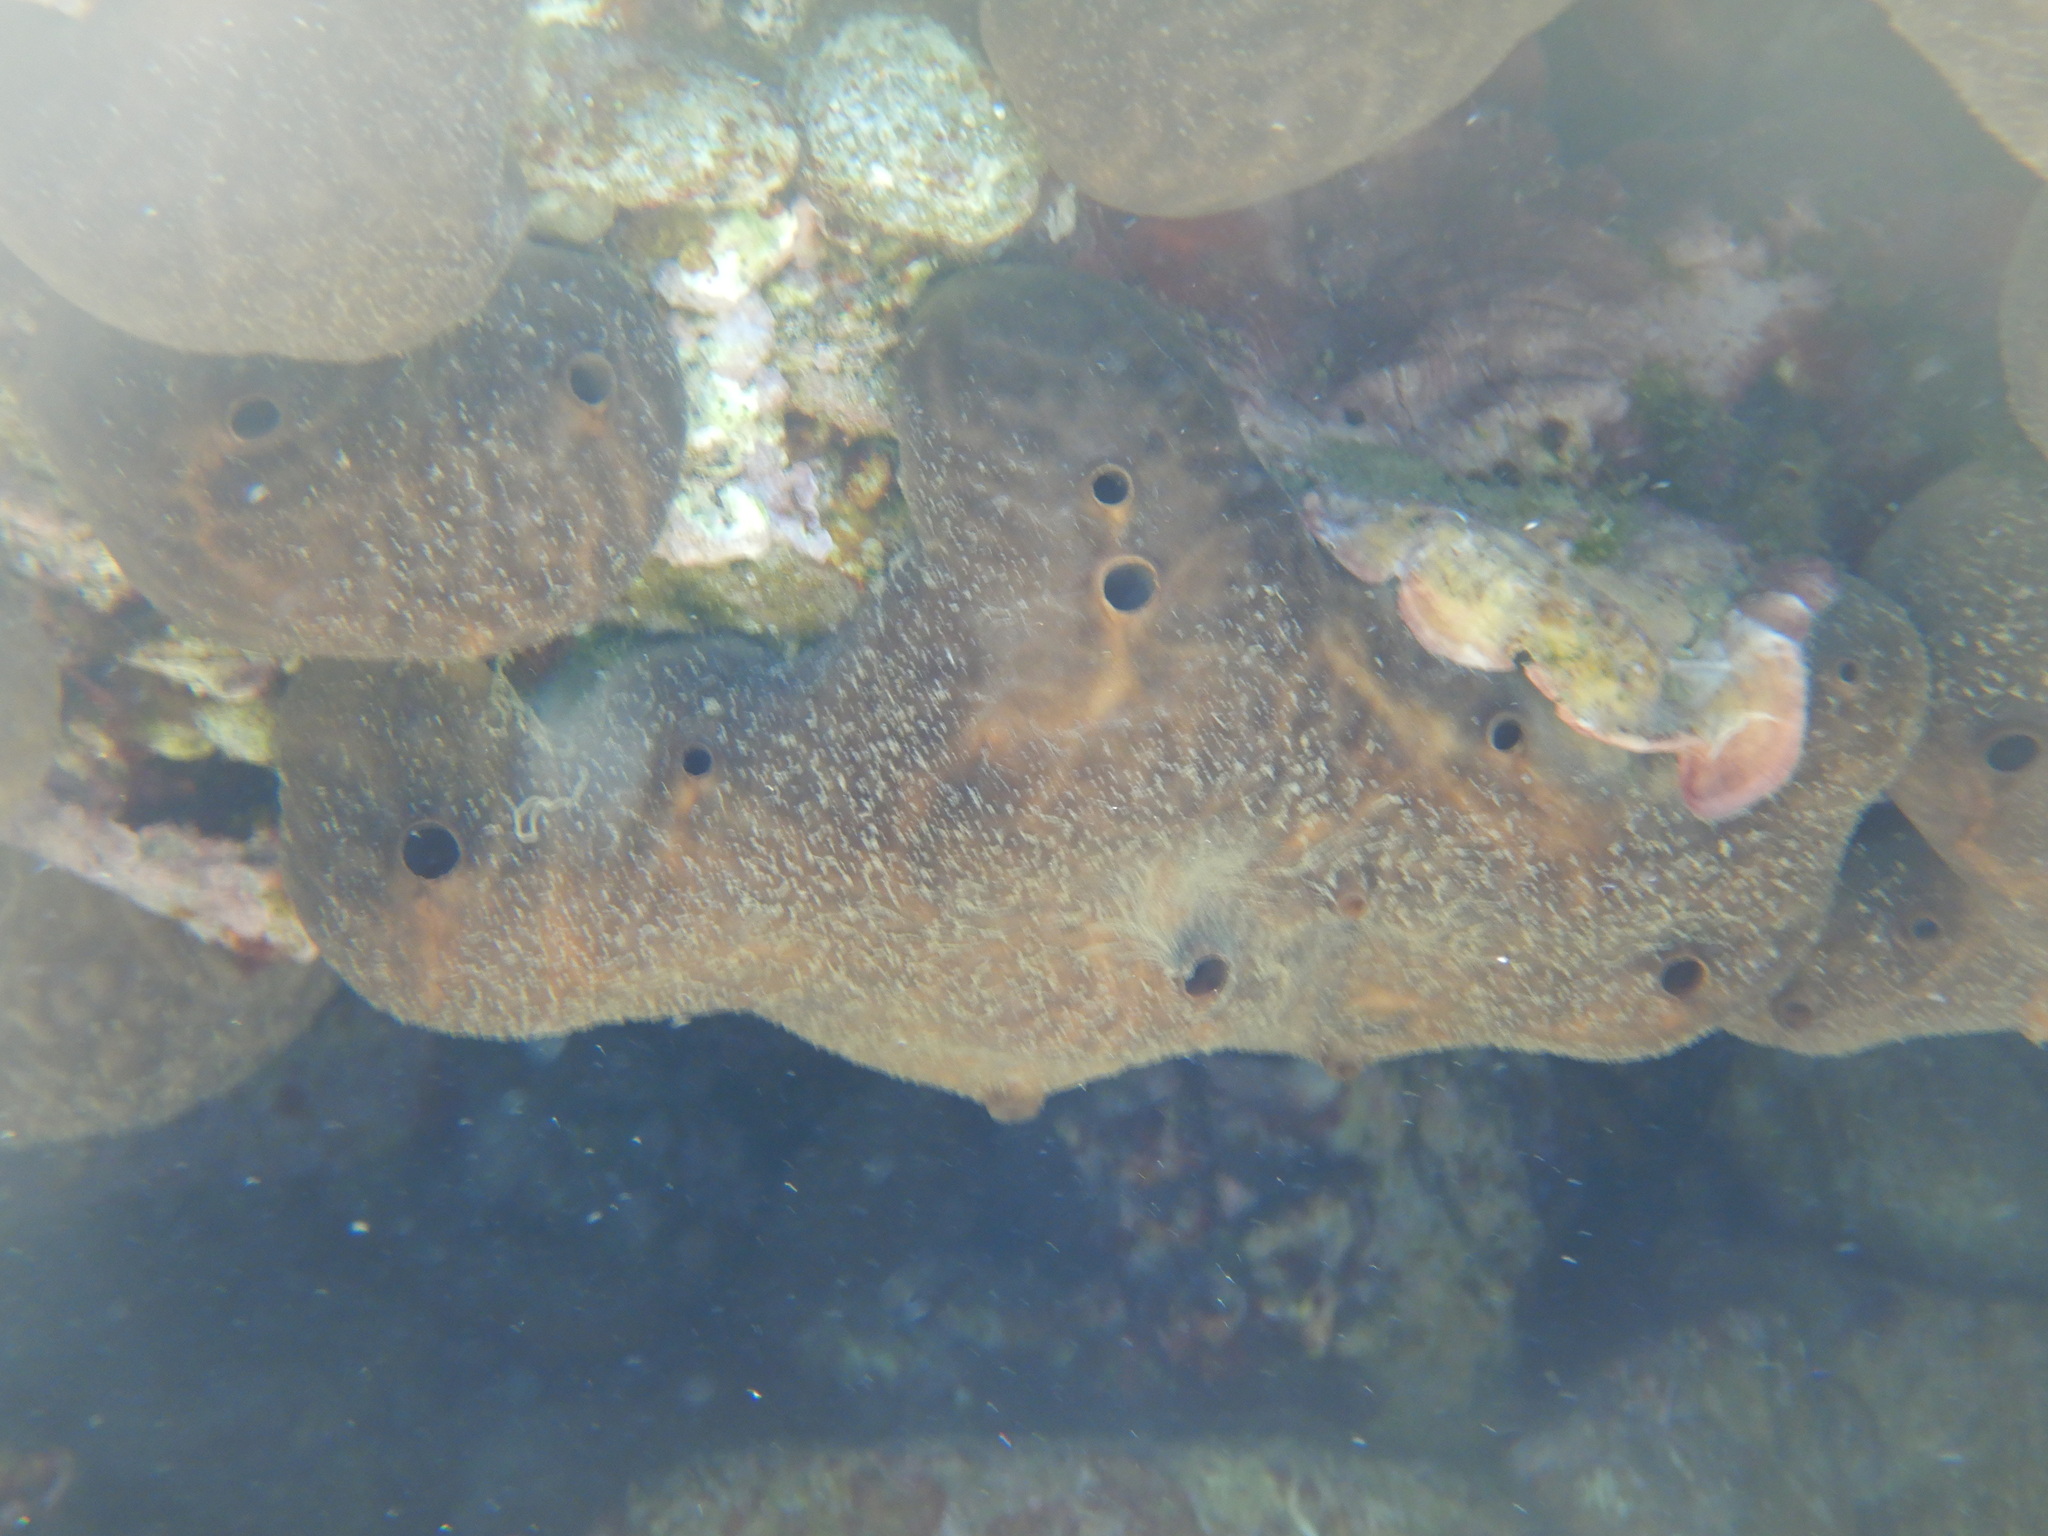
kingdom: Animalia
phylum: Porifera
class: Demospongiae
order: Chondrosiida
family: Chondrosiidae
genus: Chondrosia
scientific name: Chondrosia reniformis
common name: Chicken liver sponge
